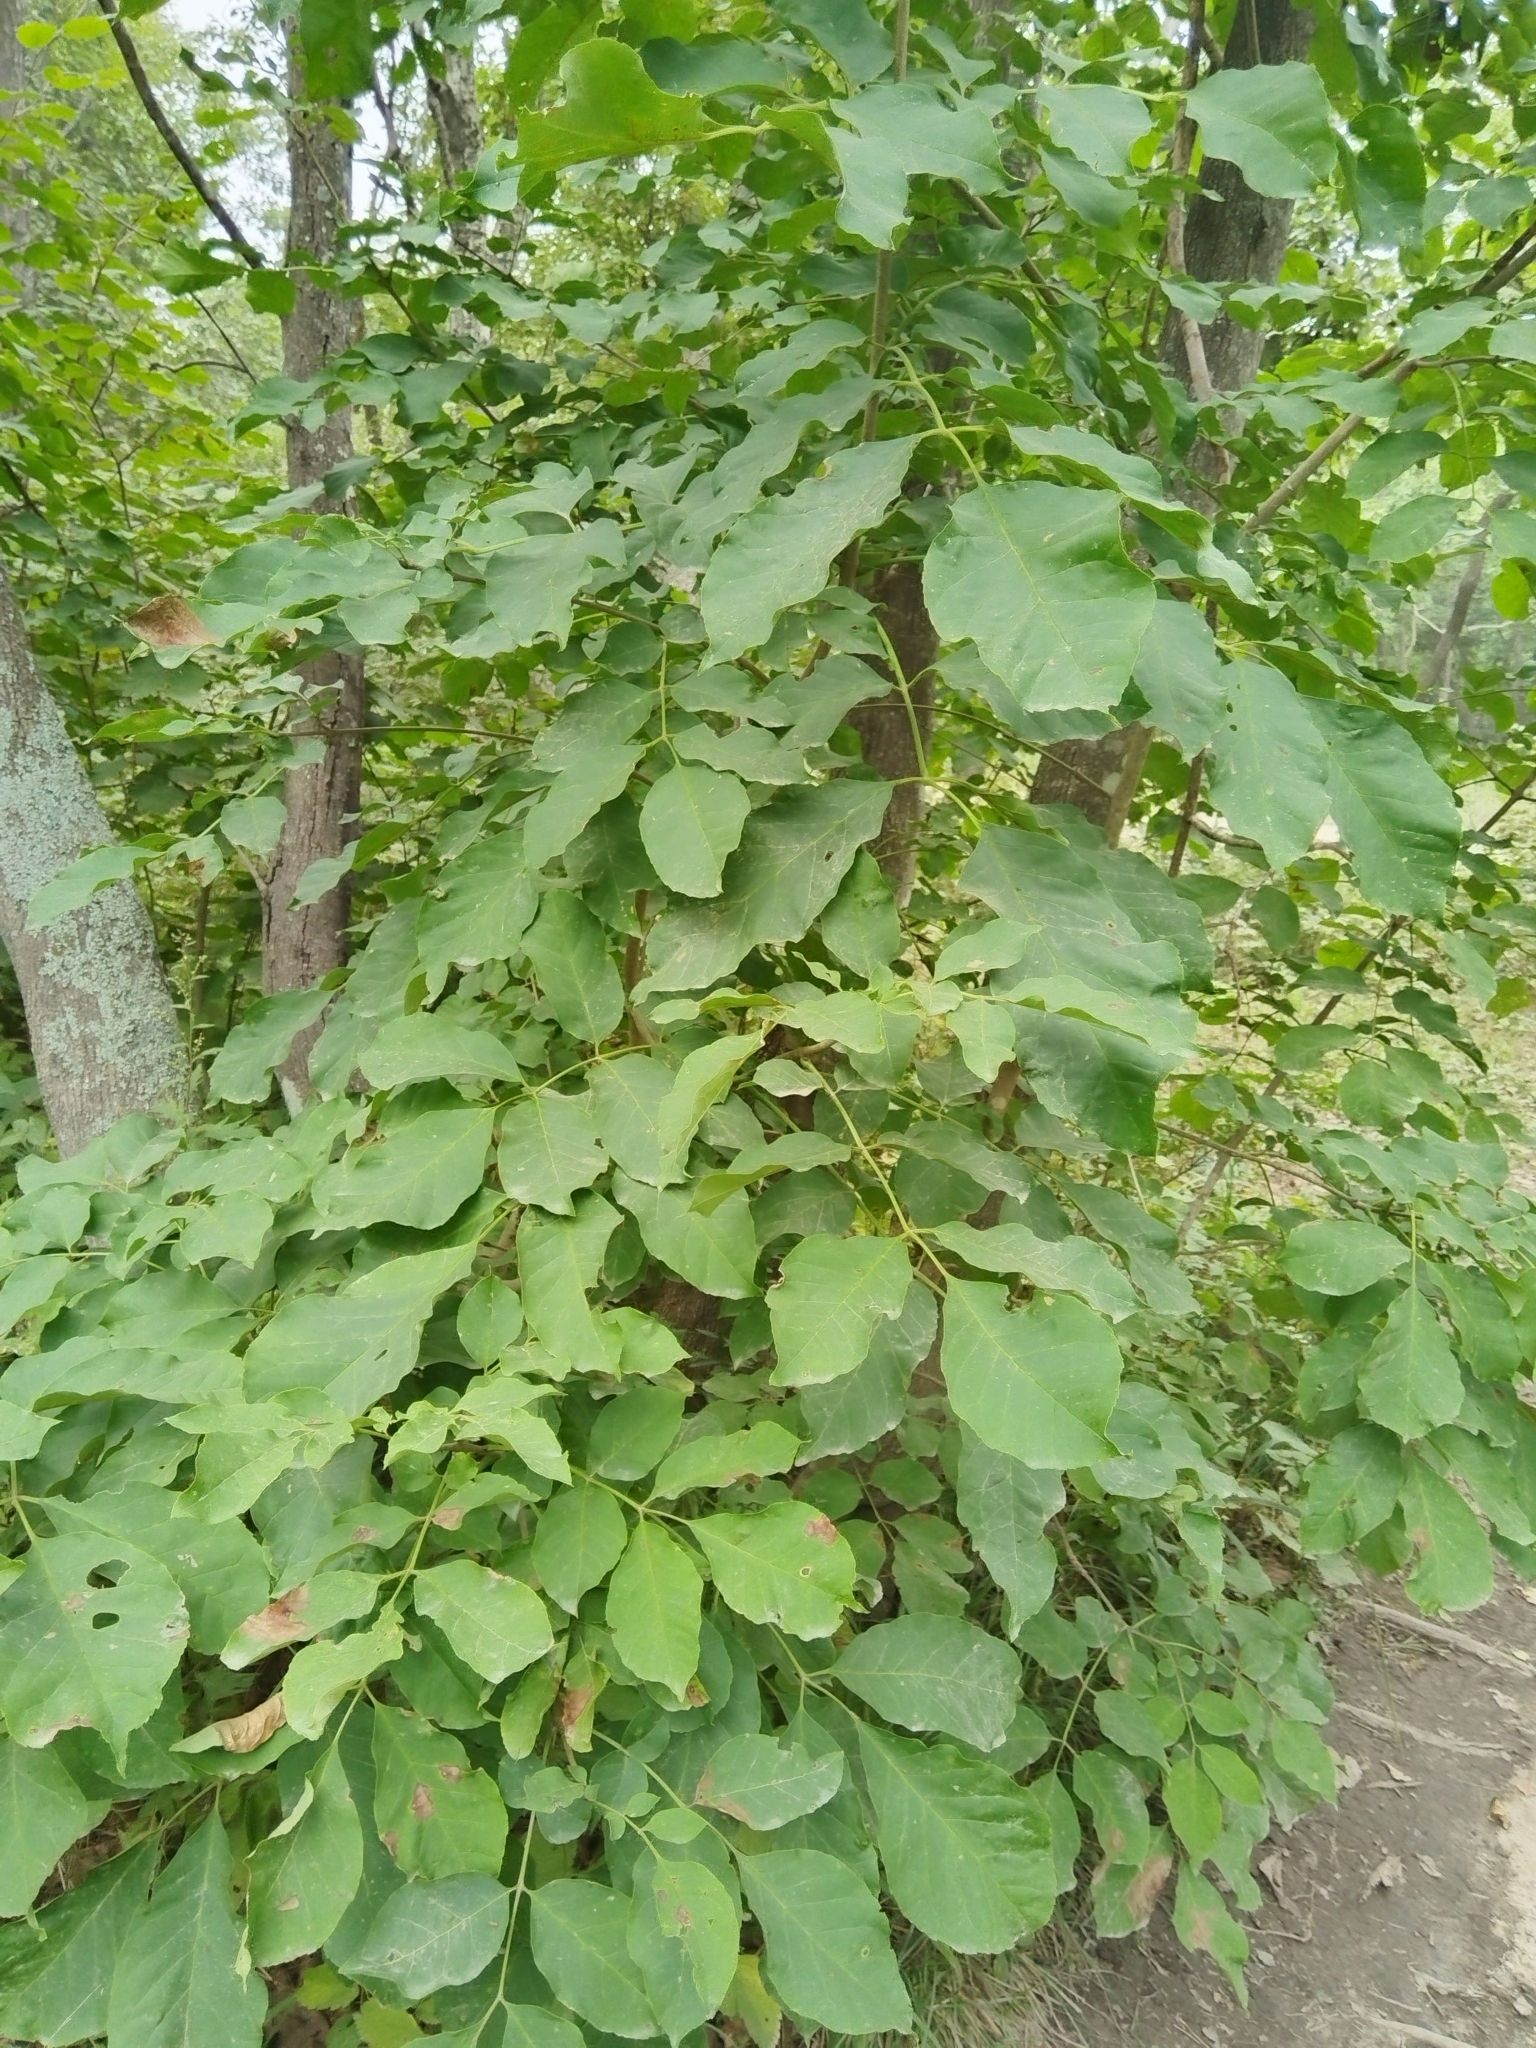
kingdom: Plantae
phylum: Tracheophyta
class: Magnoliopsida
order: Lamiales
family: Oleaceae
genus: Fraxinus
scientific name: Fraxinus chinensis
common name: Chinese ash
